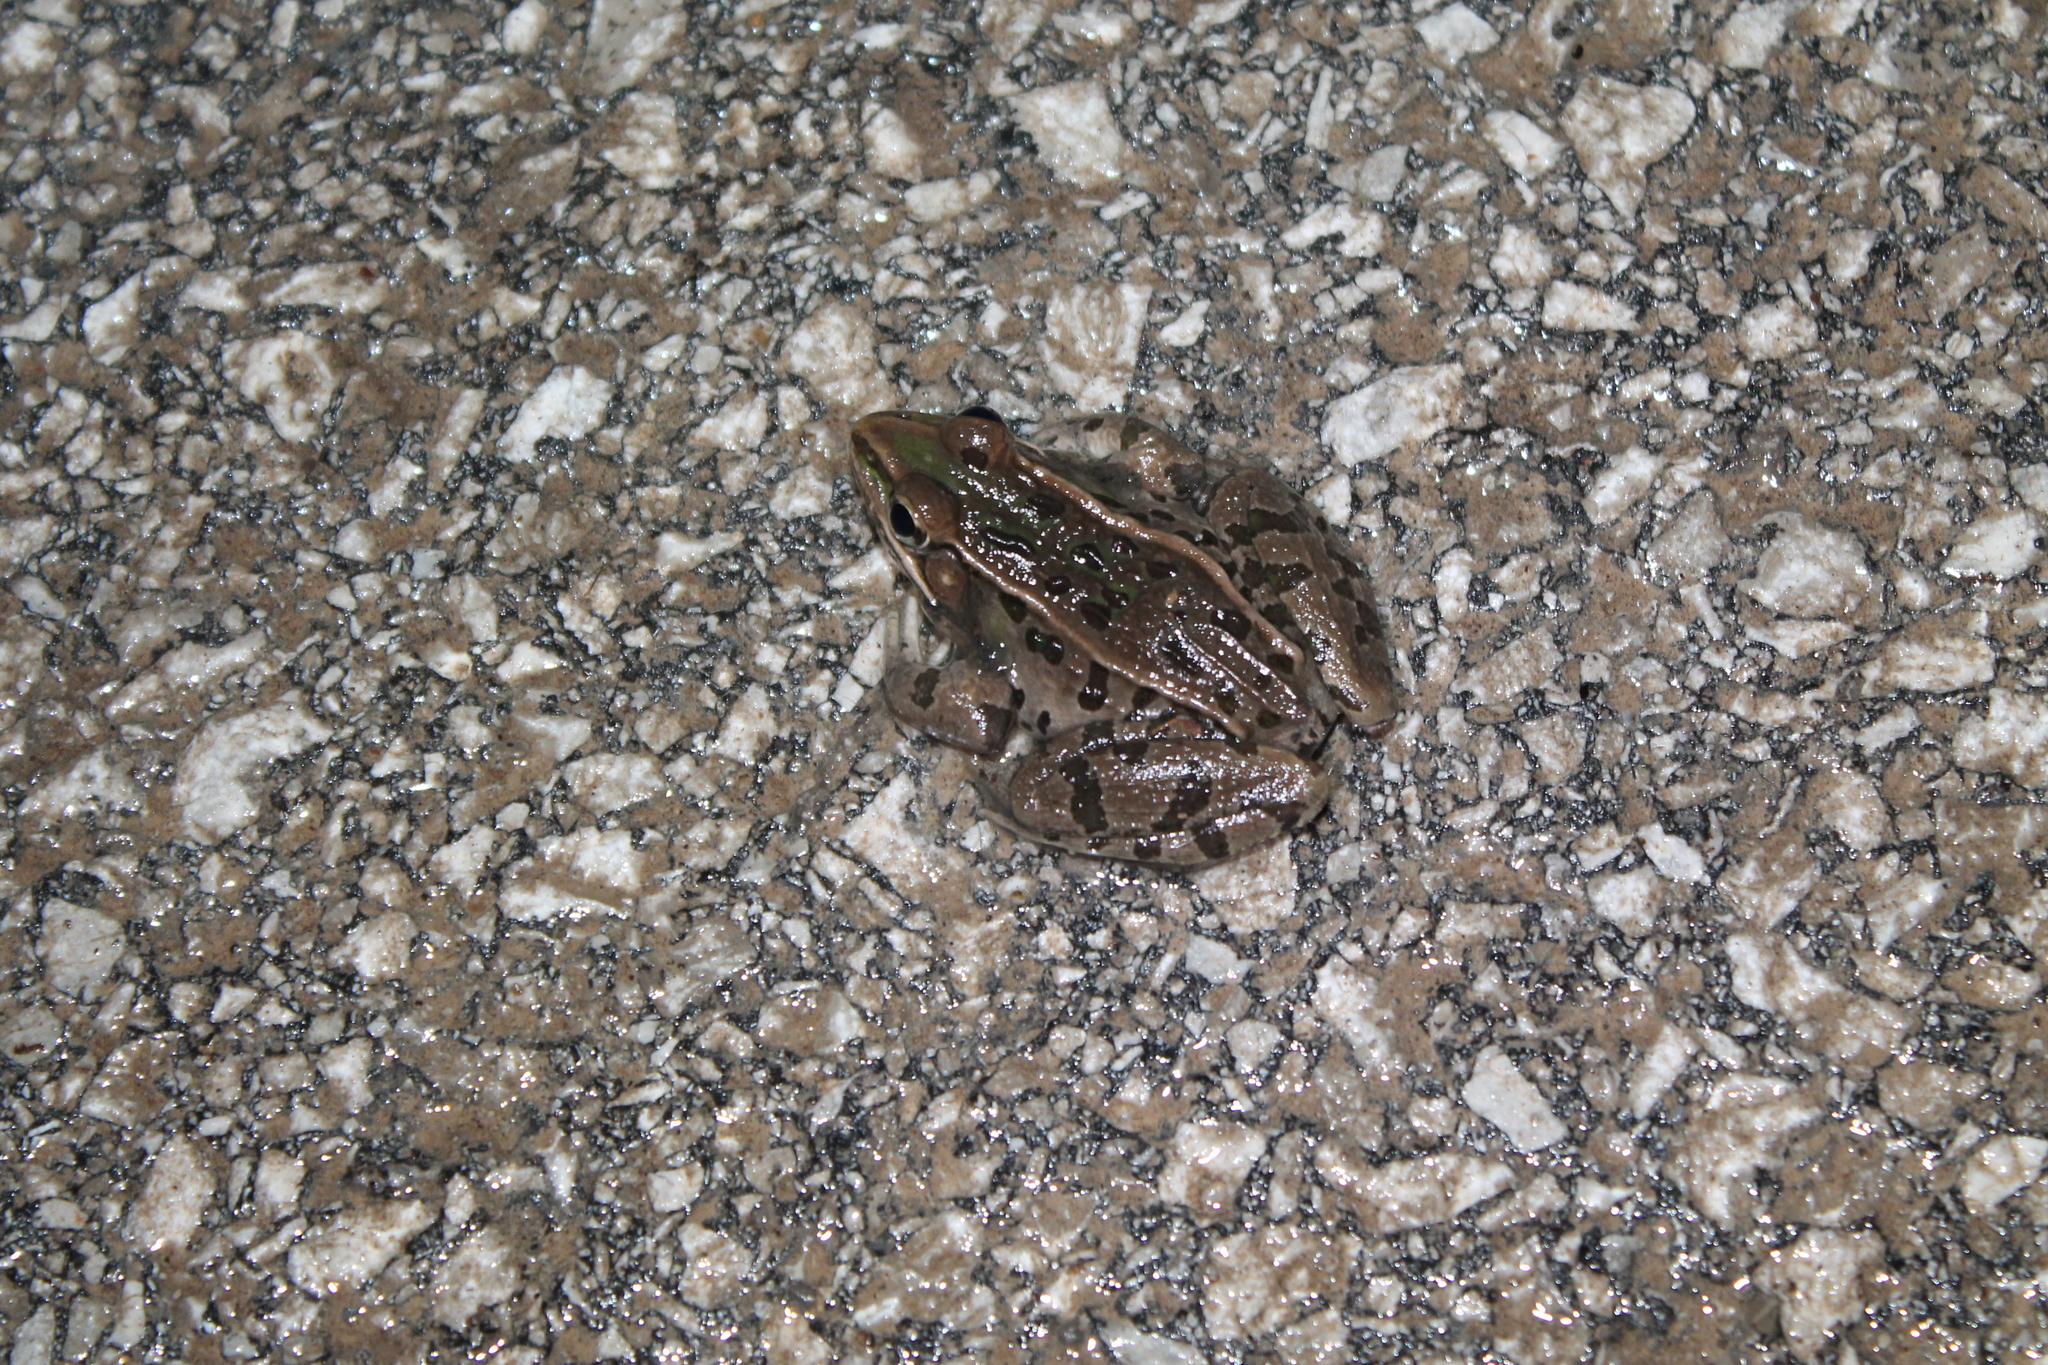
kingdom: Animalia
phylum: Chordata
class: Amphibia
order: Anura
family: Ranidae
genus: Lithobates
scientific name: Lithobates sphenocephalus
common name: Southern leopard frog
